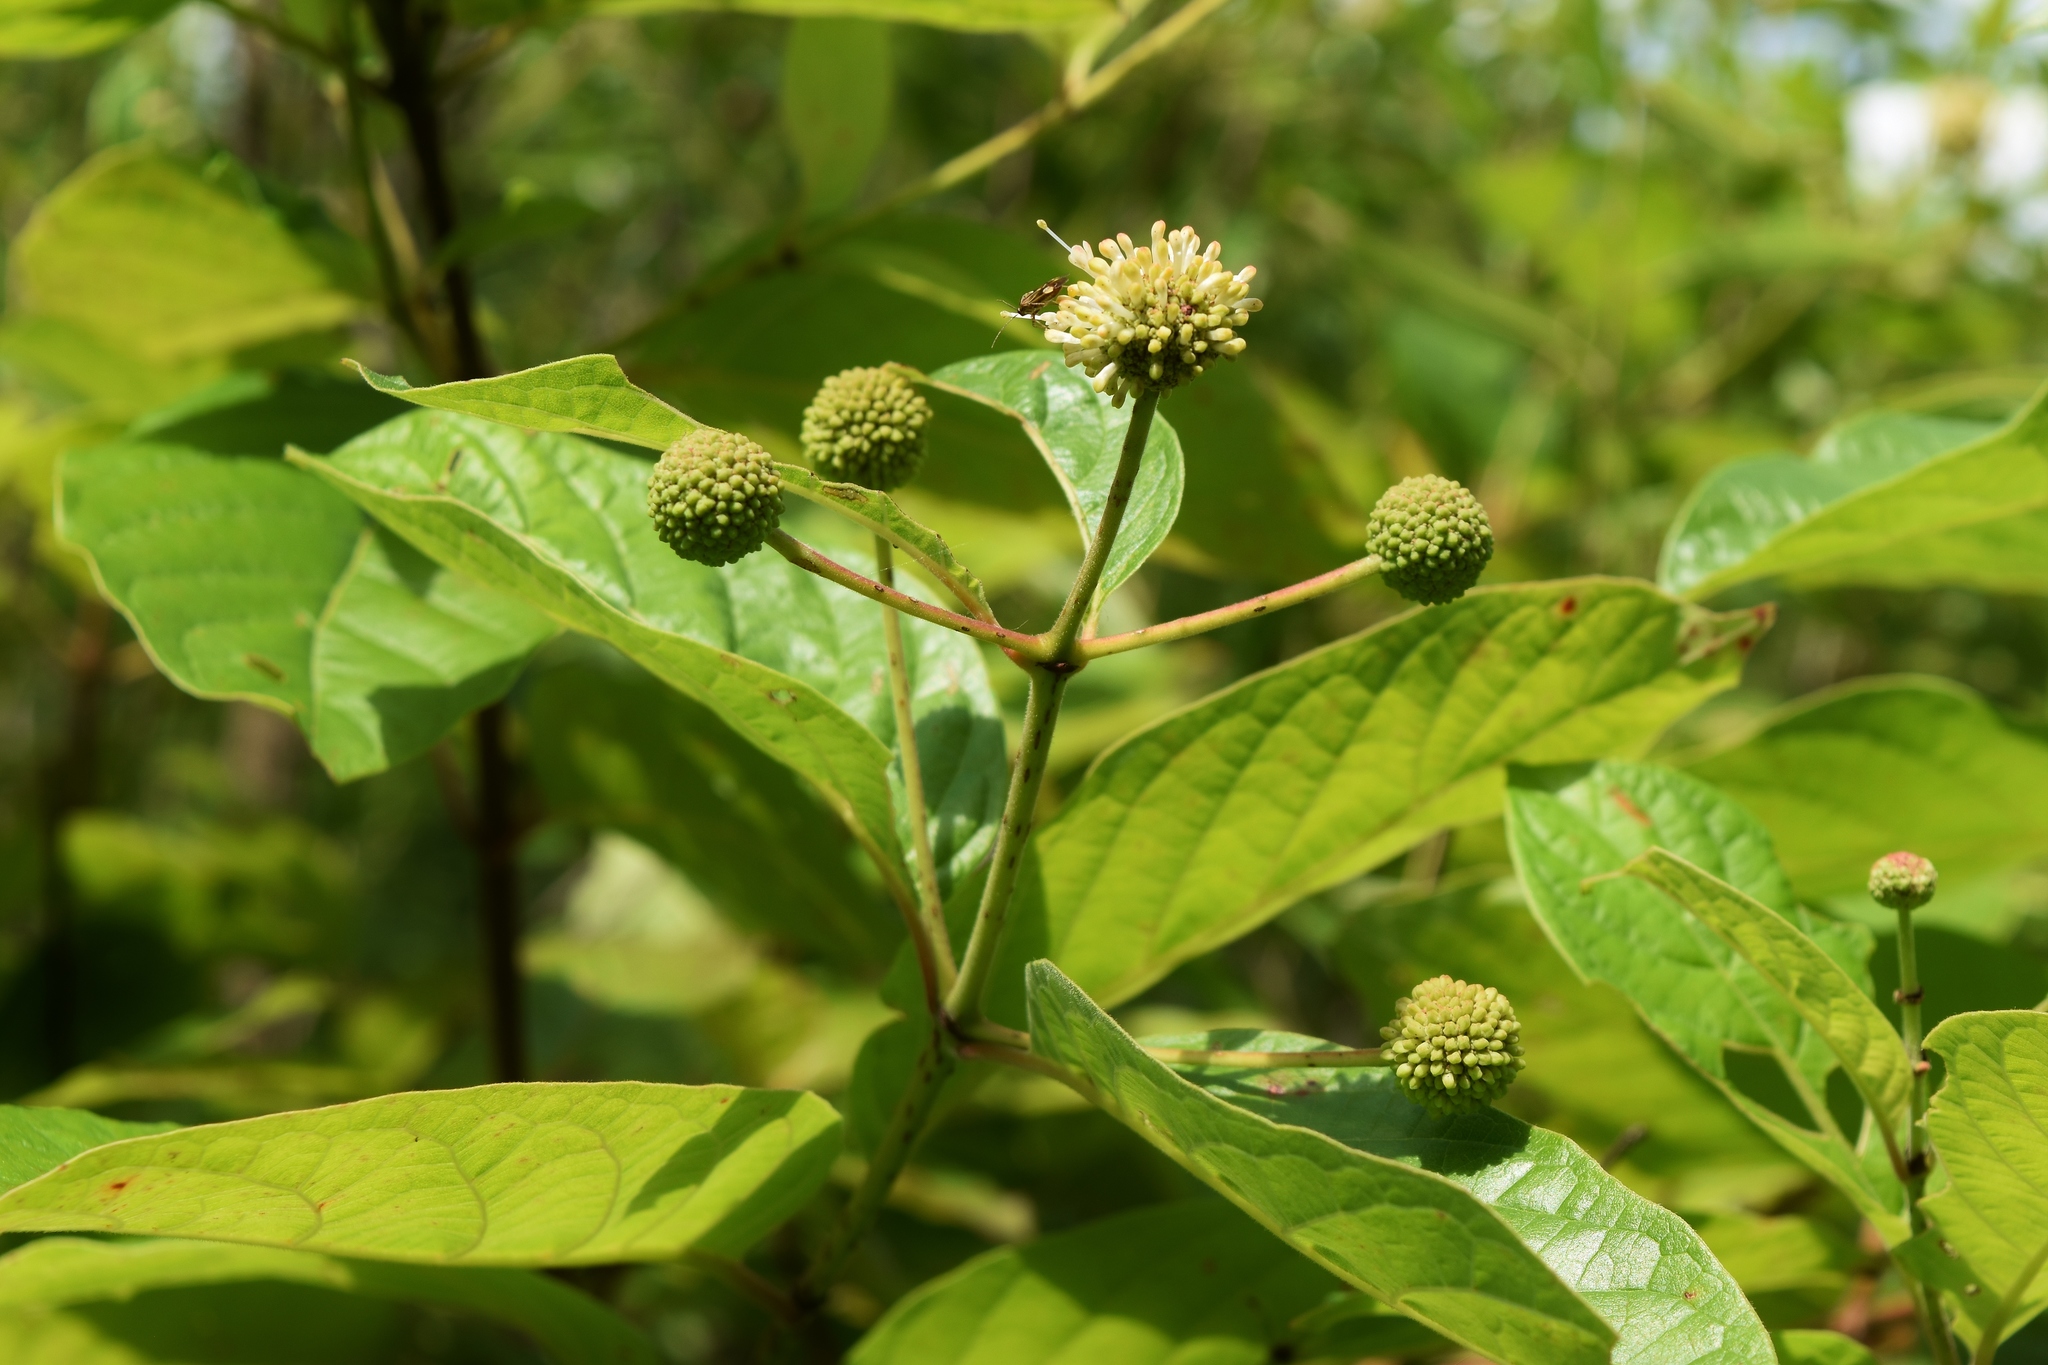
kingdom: Plantae
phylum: Tracheophyta
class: Magnoliopsida
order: Gentianales
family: Rubiaceae
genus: Cephalanthus
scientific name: Cephalanthus occidentalis
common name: Button-willow
